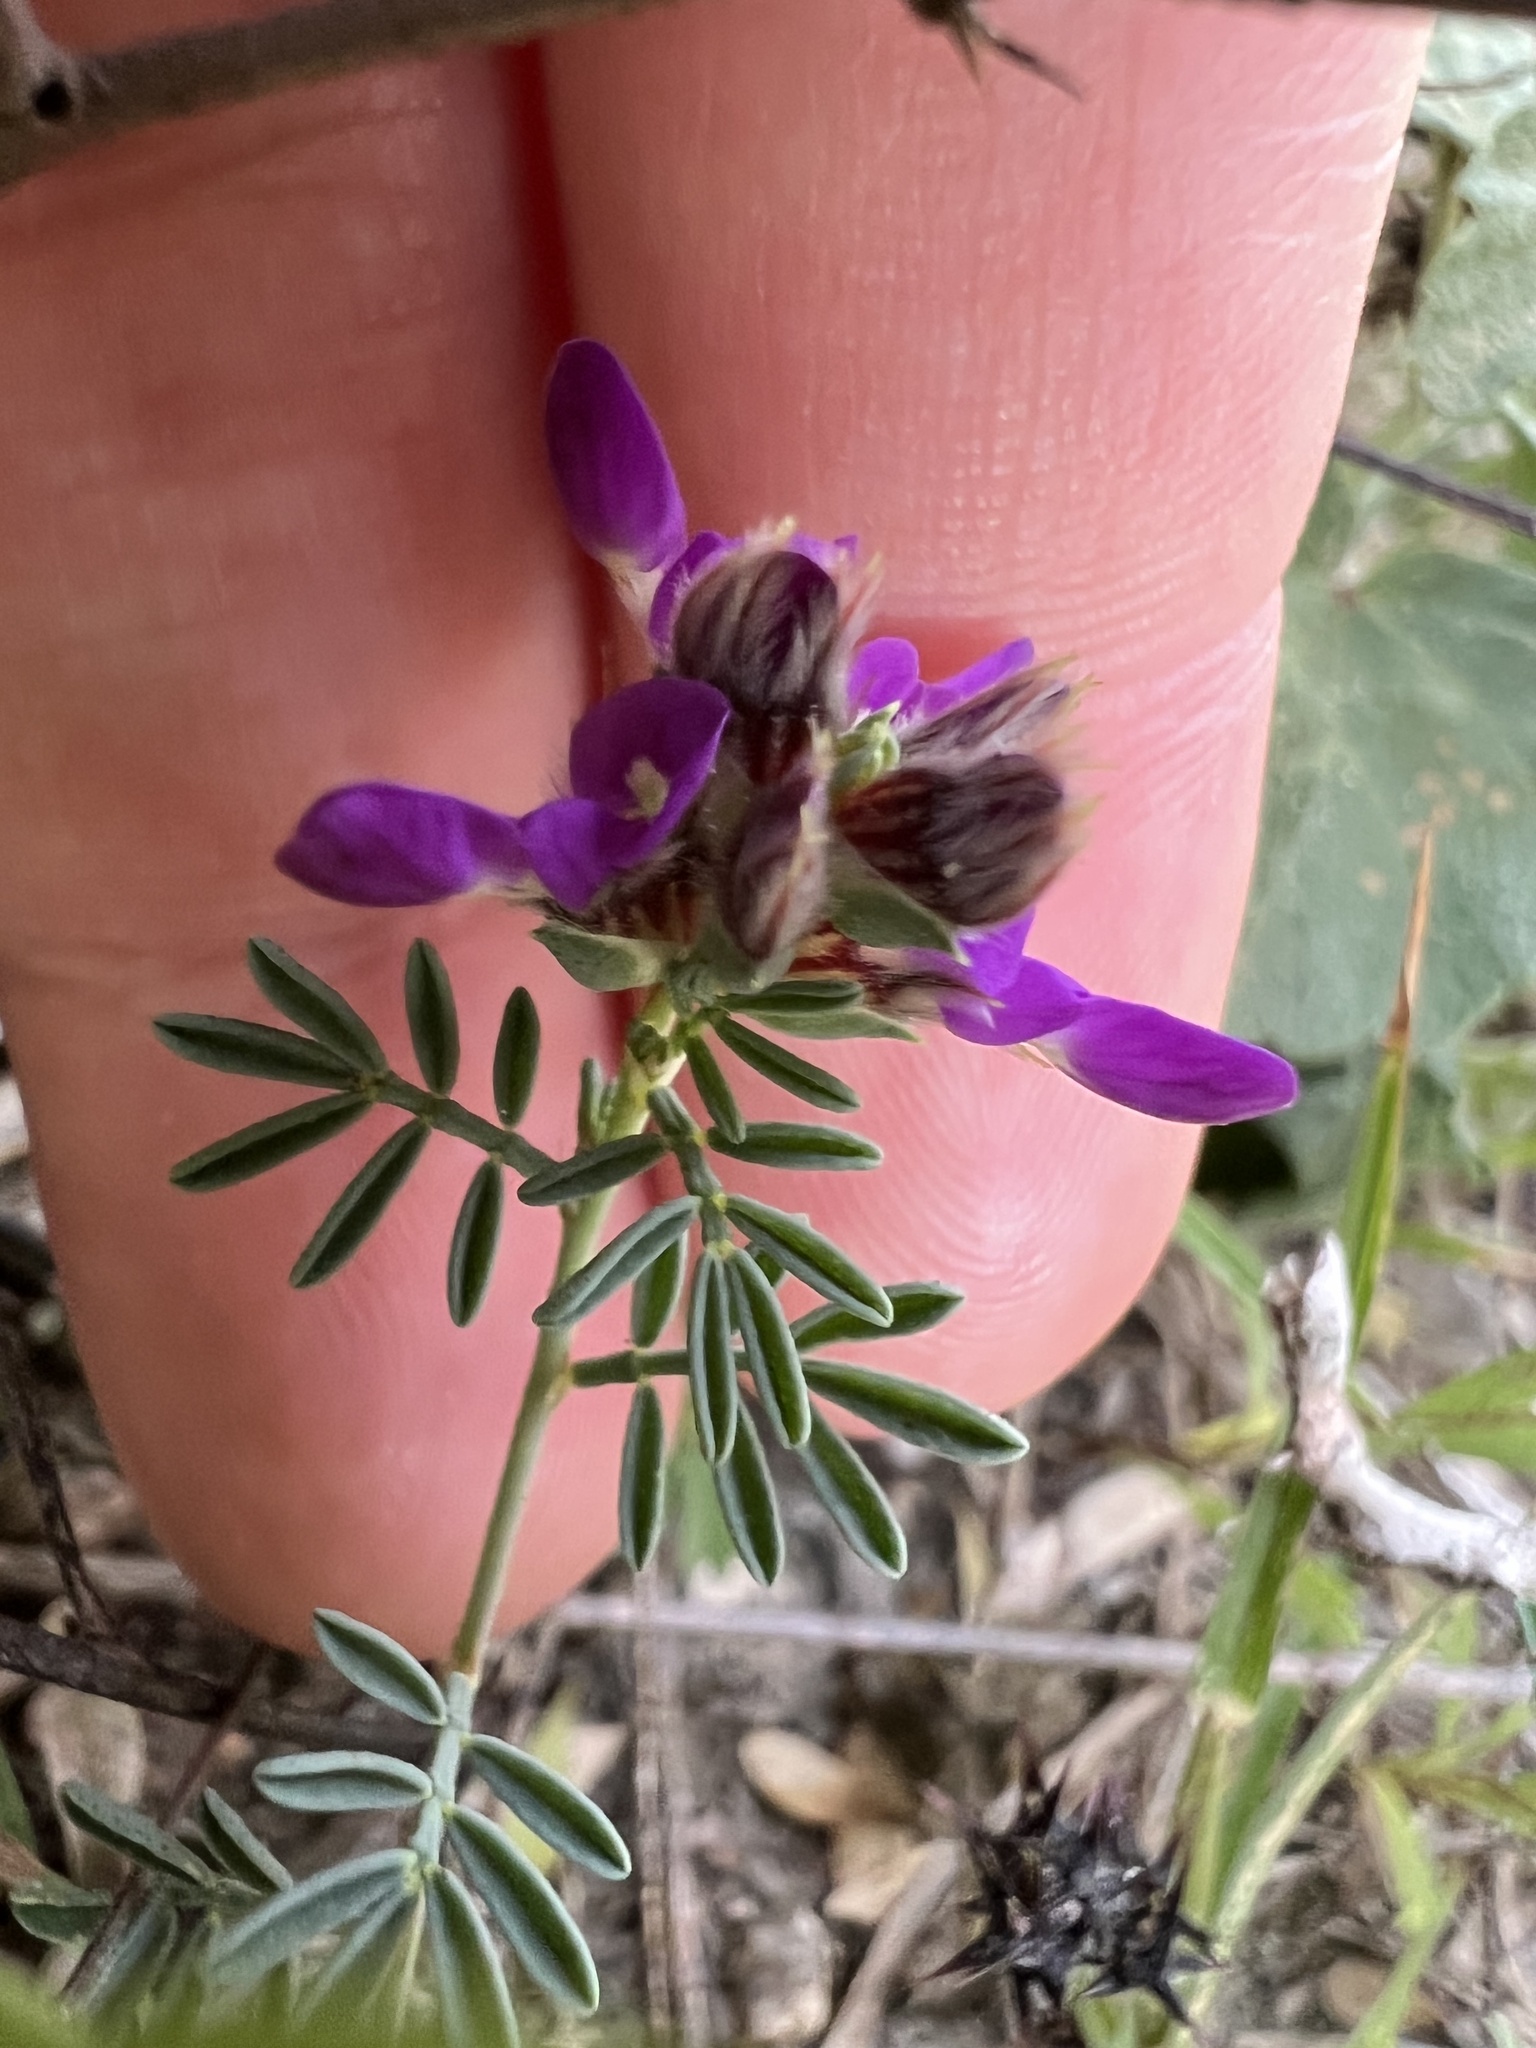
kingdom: Plantae
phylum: Tracheophyta
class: Magnoliopsida
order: Fabales
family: Fabaceae
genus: Dalea
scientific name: Dalea pogonathera
